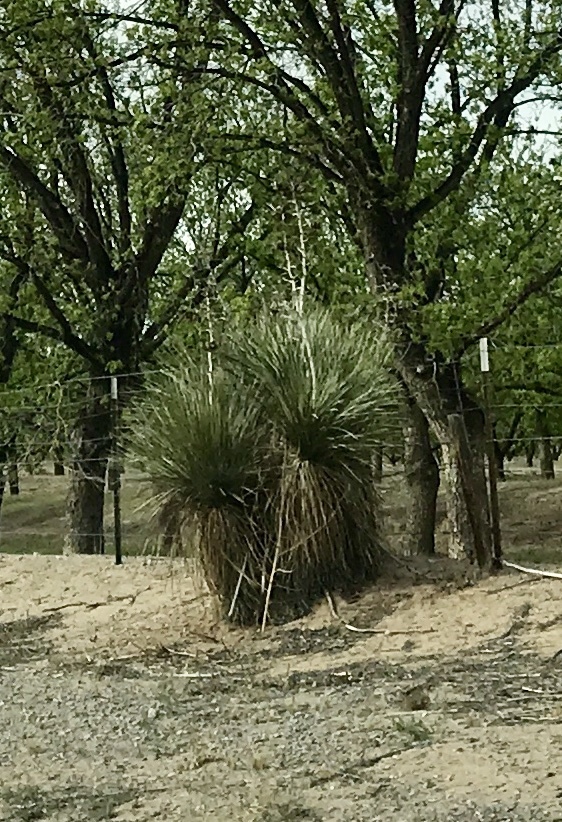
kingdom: Plantae
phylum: Tracheophyta
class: Liliopsida
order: Asparagales
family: Asparagaceae
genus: Yucca
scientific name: Yucca elata
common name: Palmella
